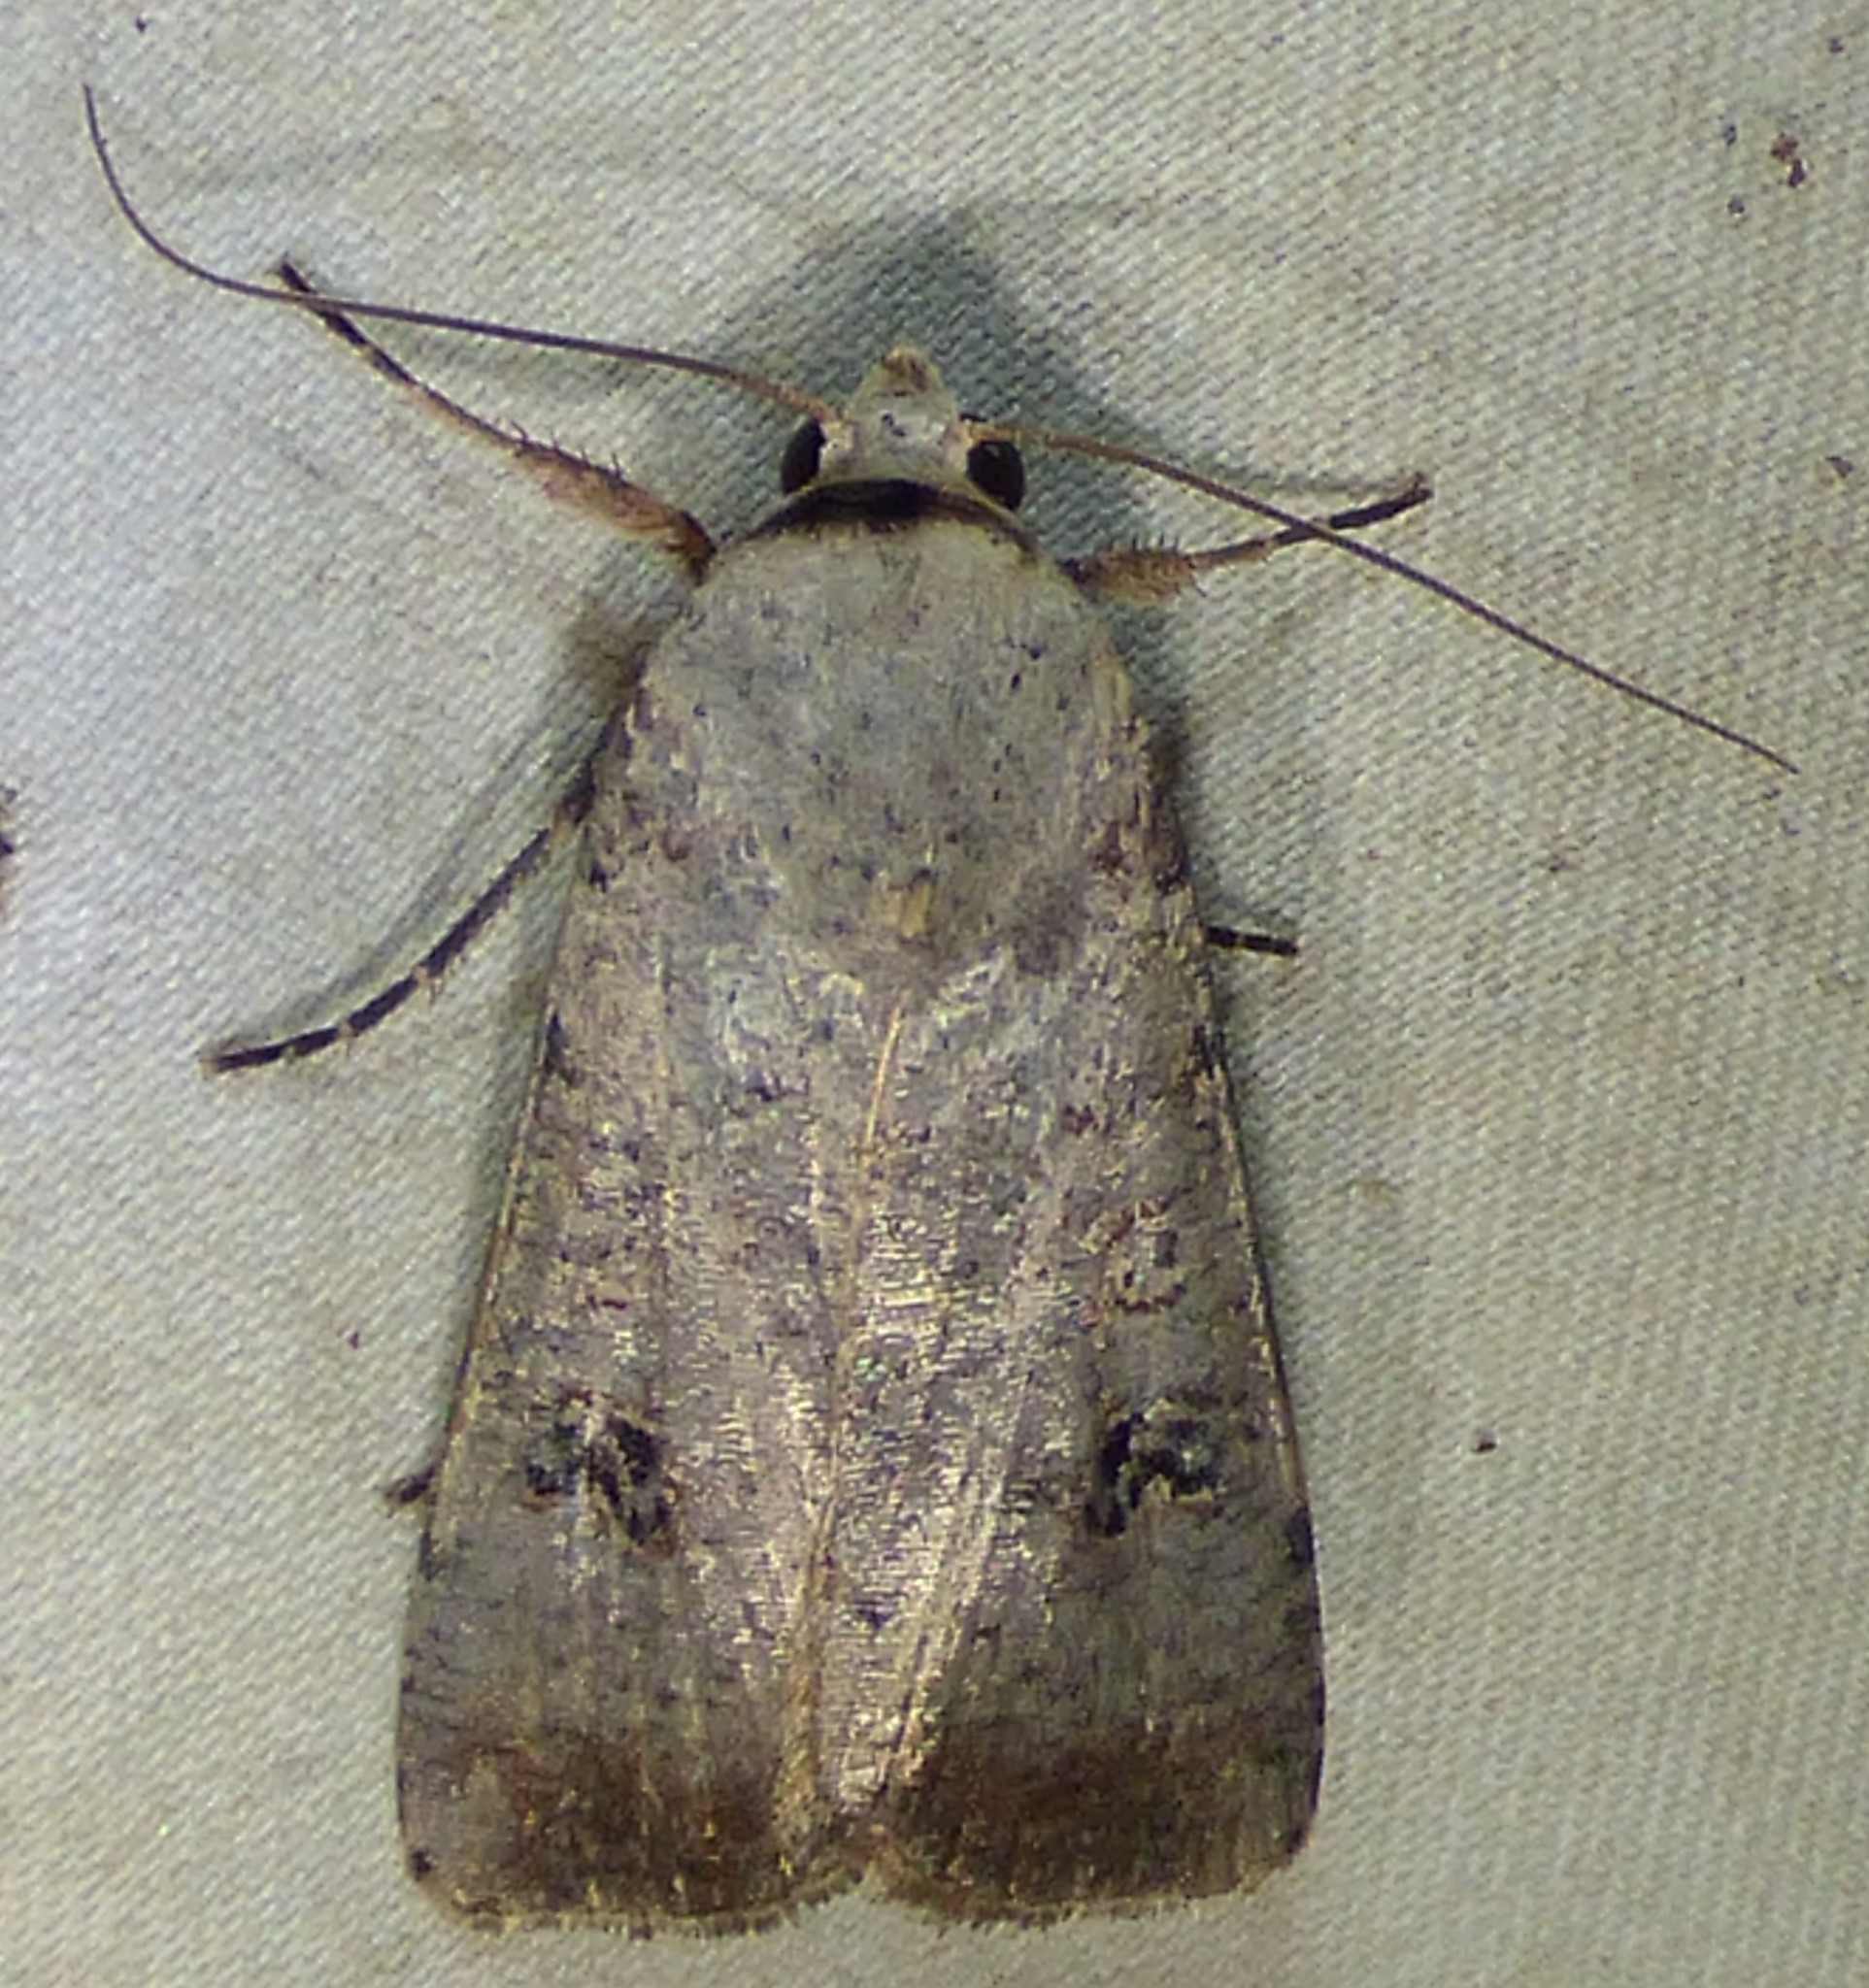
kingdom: Animalia
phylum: Arthropoda
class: Insecta
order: Lepidoptera
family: Noctuidae
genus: Anicla
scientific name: Anicla infecta
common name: Green cutworm
